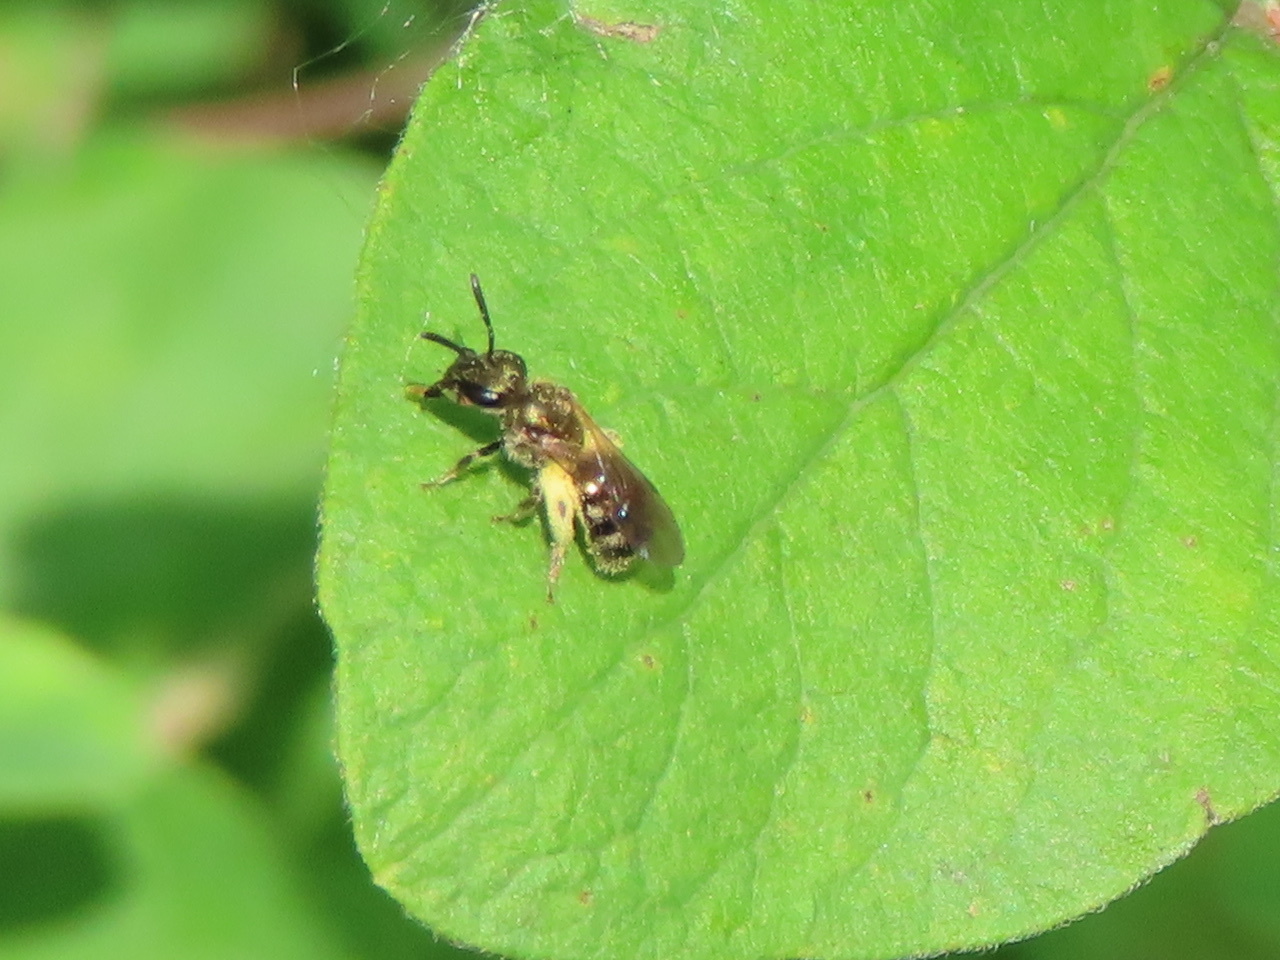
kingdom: Animalia
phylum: Arthropoda
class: Insecta
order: Hymenoptera
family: Halictidae
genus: Halictus
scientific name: Halictus confusus
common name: Southern bronze furrow bee
